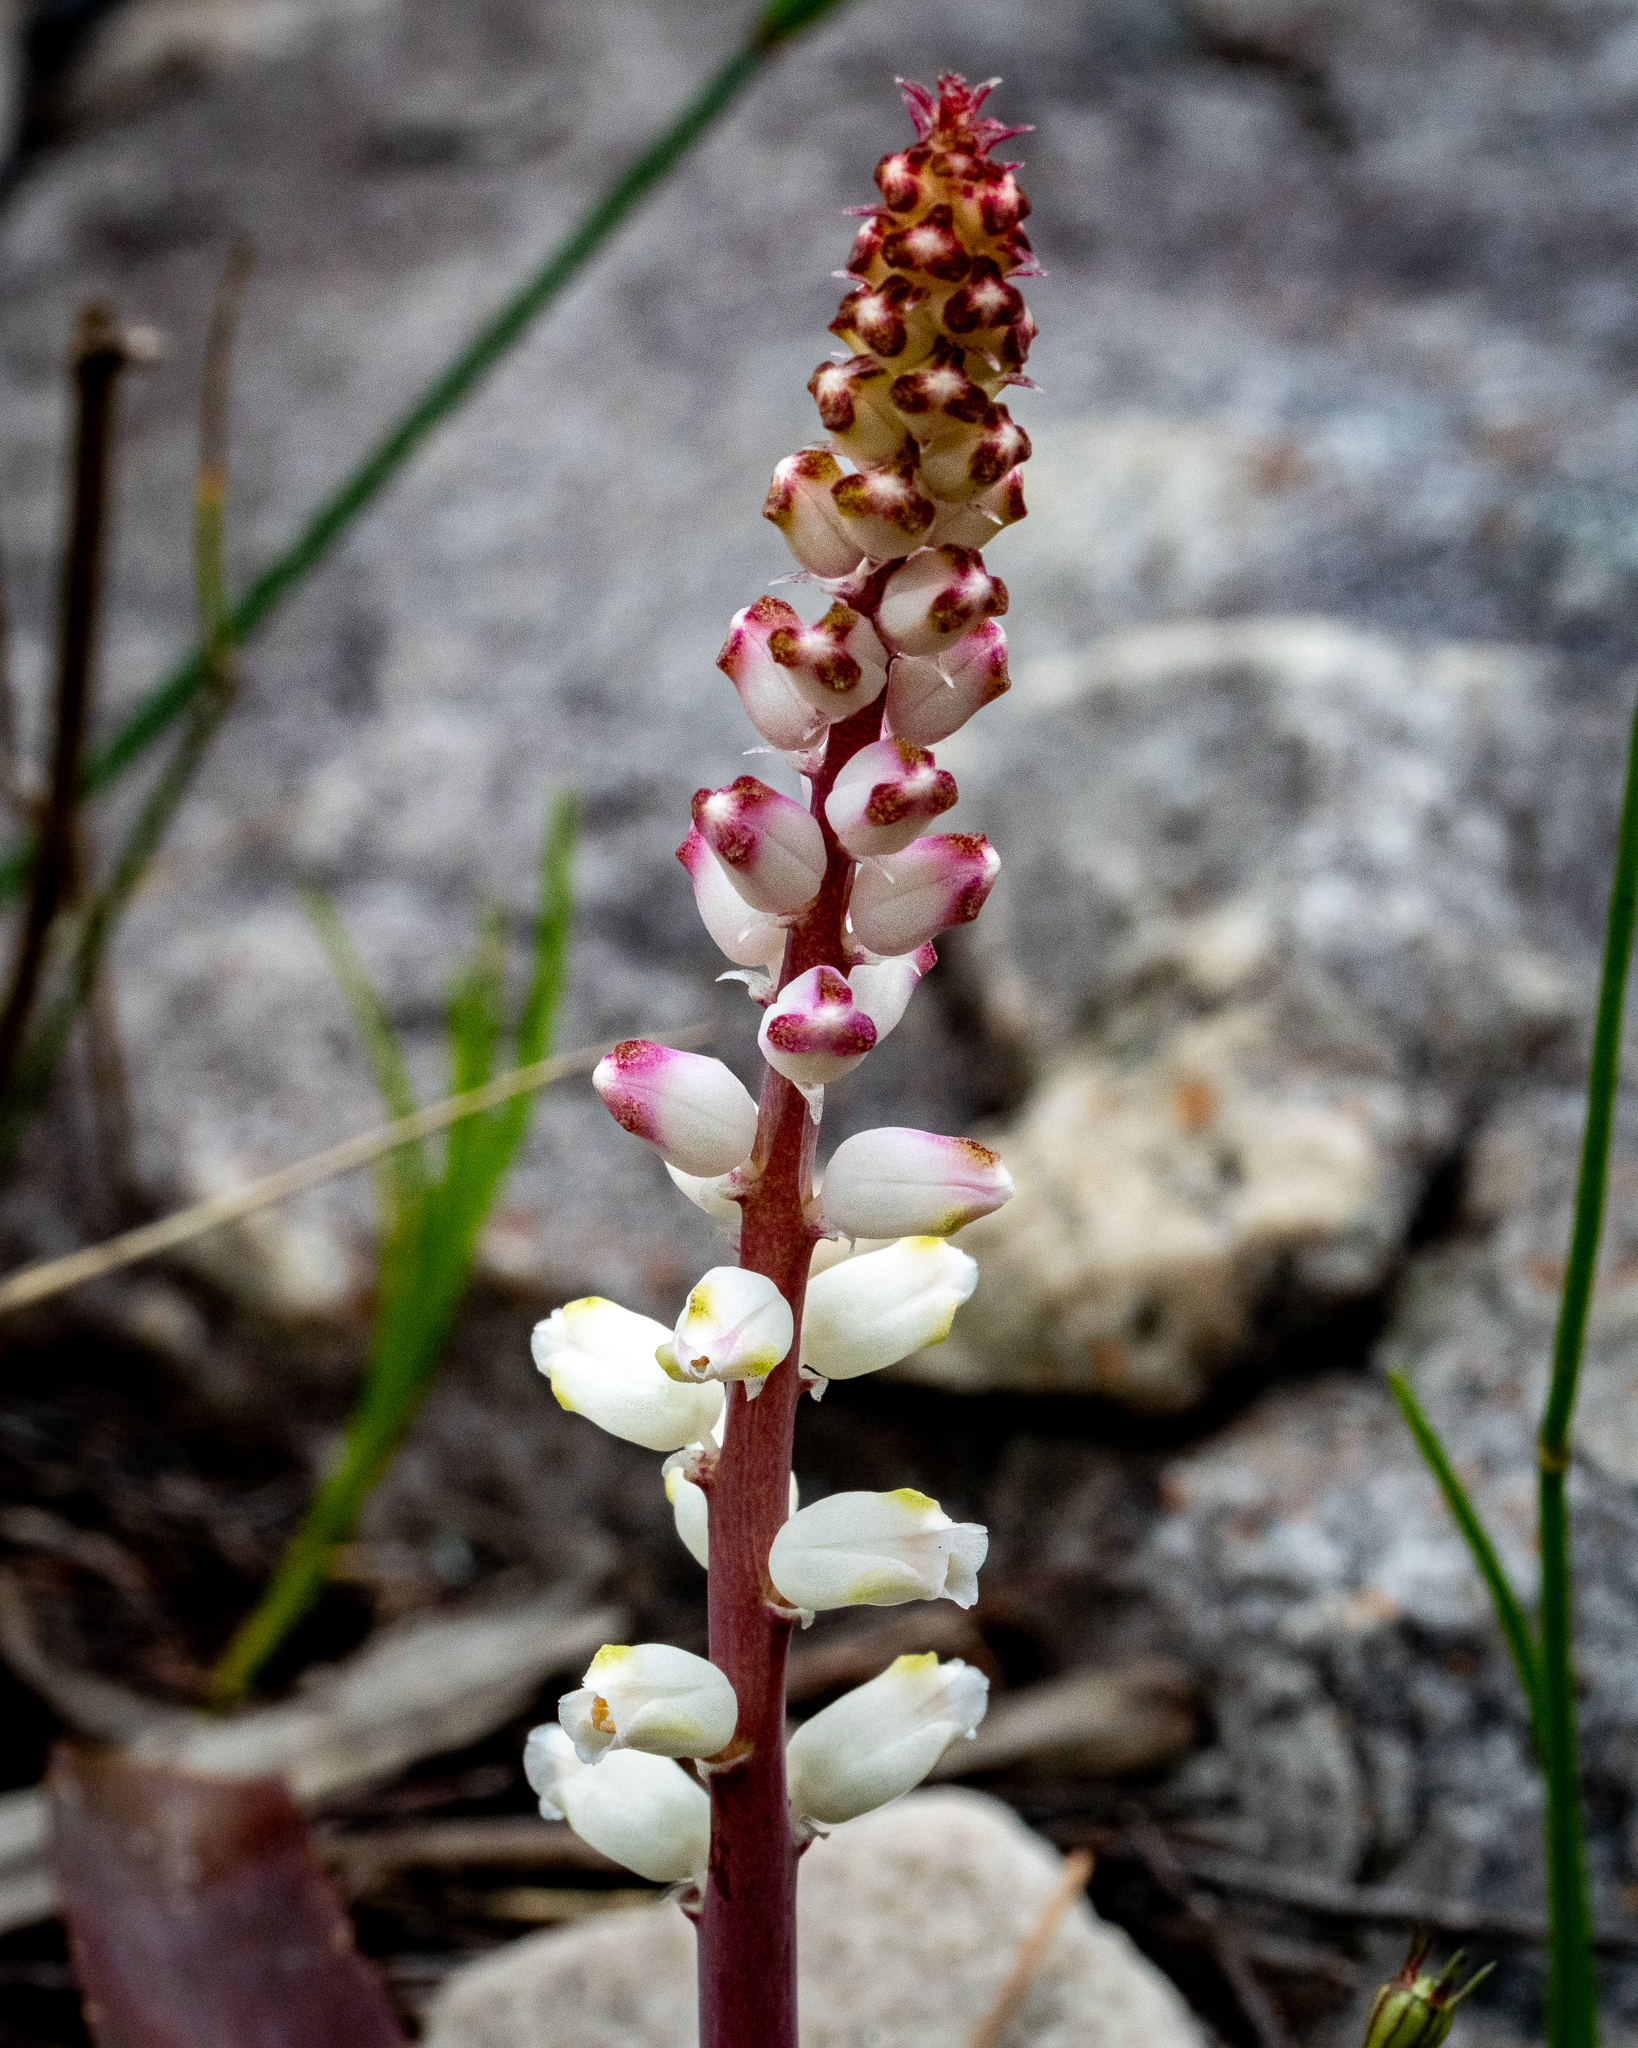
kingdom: Plantae
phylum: Tracheophyta
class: Liliopsida
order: Asparagales
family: Asparagaceae
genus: Lachenalia
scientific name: Lachenalia peersii
